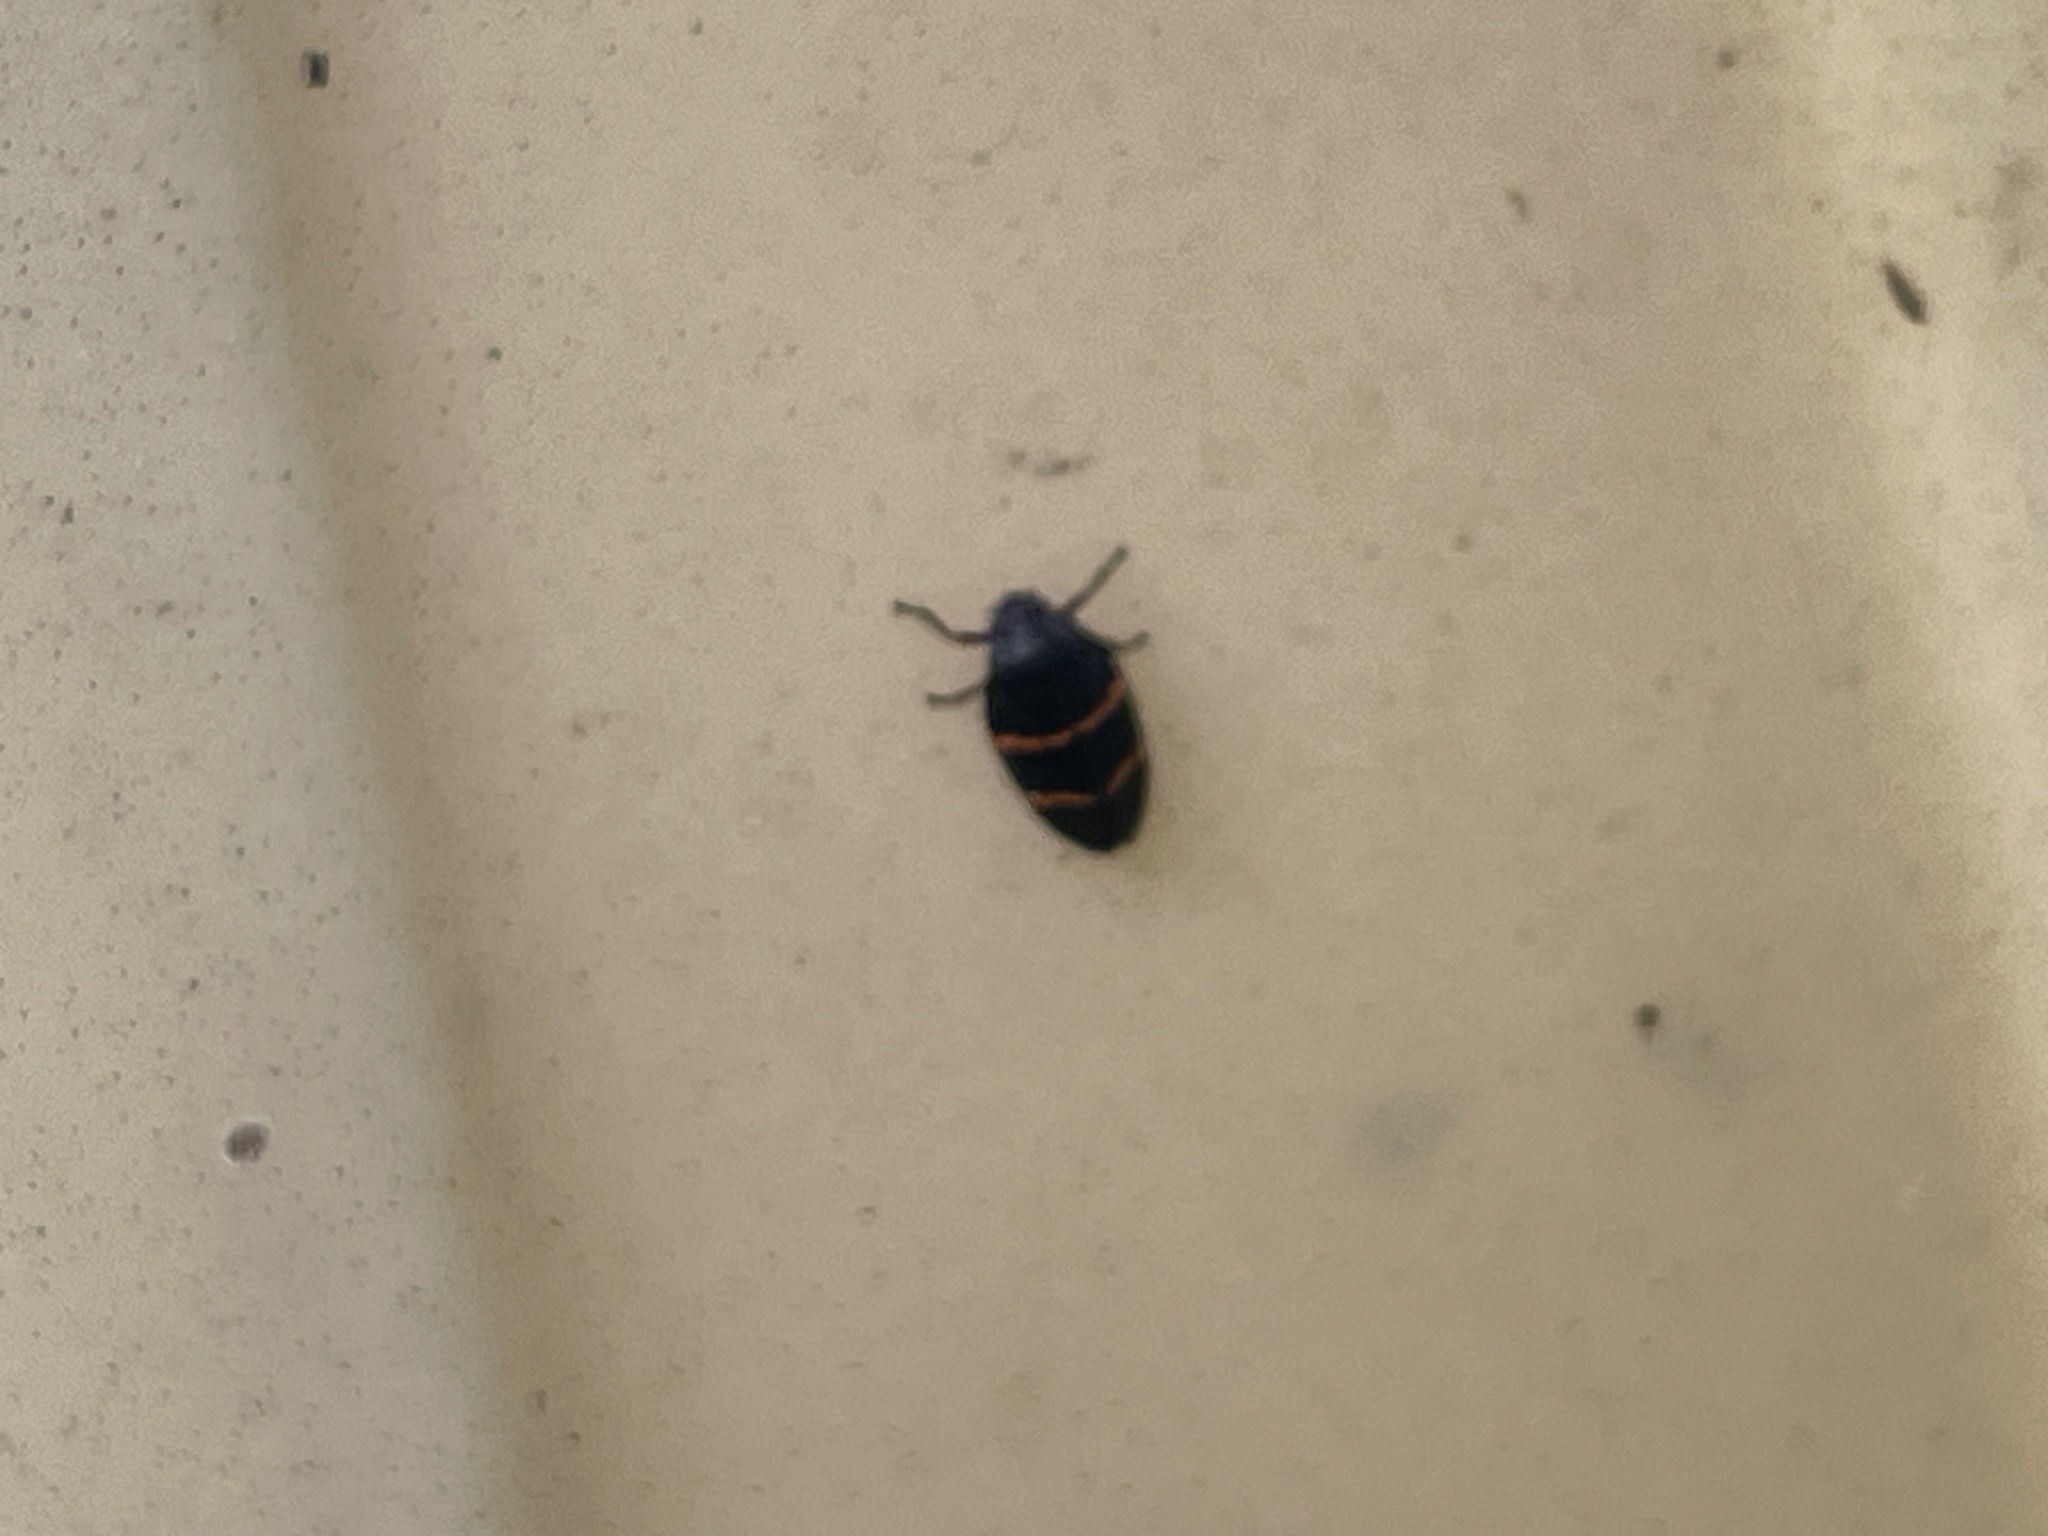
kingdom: Animalia
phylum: Arthropoda
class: Insecta
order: Hemiptera
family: Cercopidae
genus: Prosapia
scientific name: Prosapia bicincta
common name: Twolined spittlebug
